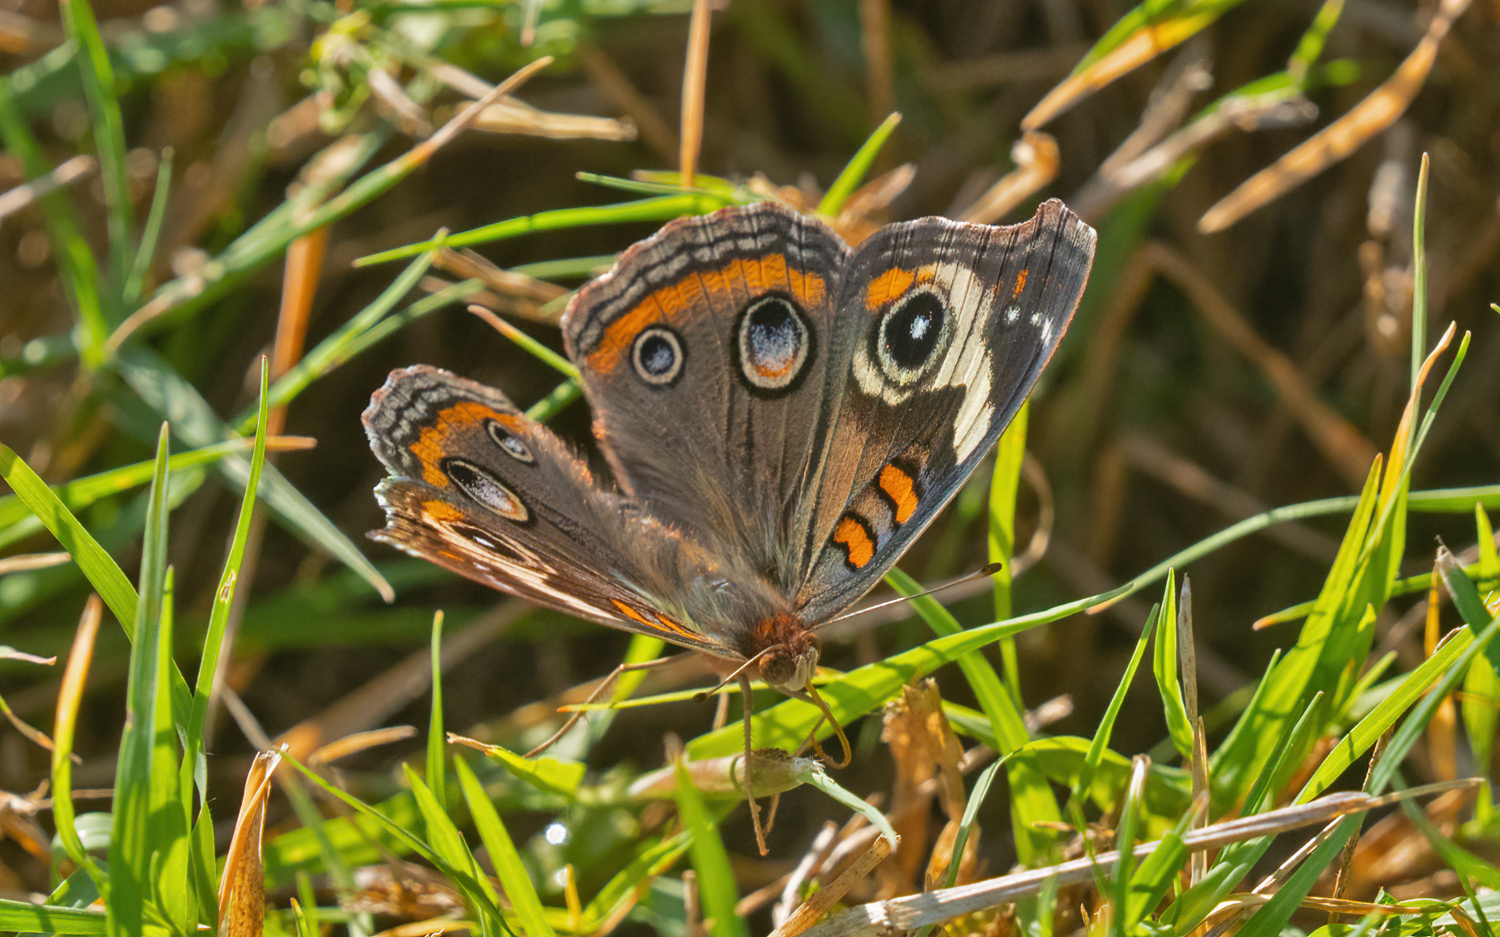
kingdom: Animalia
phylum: Arthropoda
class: Insecta
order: Lepidoptera
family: Nymphalidae
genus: Junonia
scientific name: Junonia coenia
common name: Common buckeye
